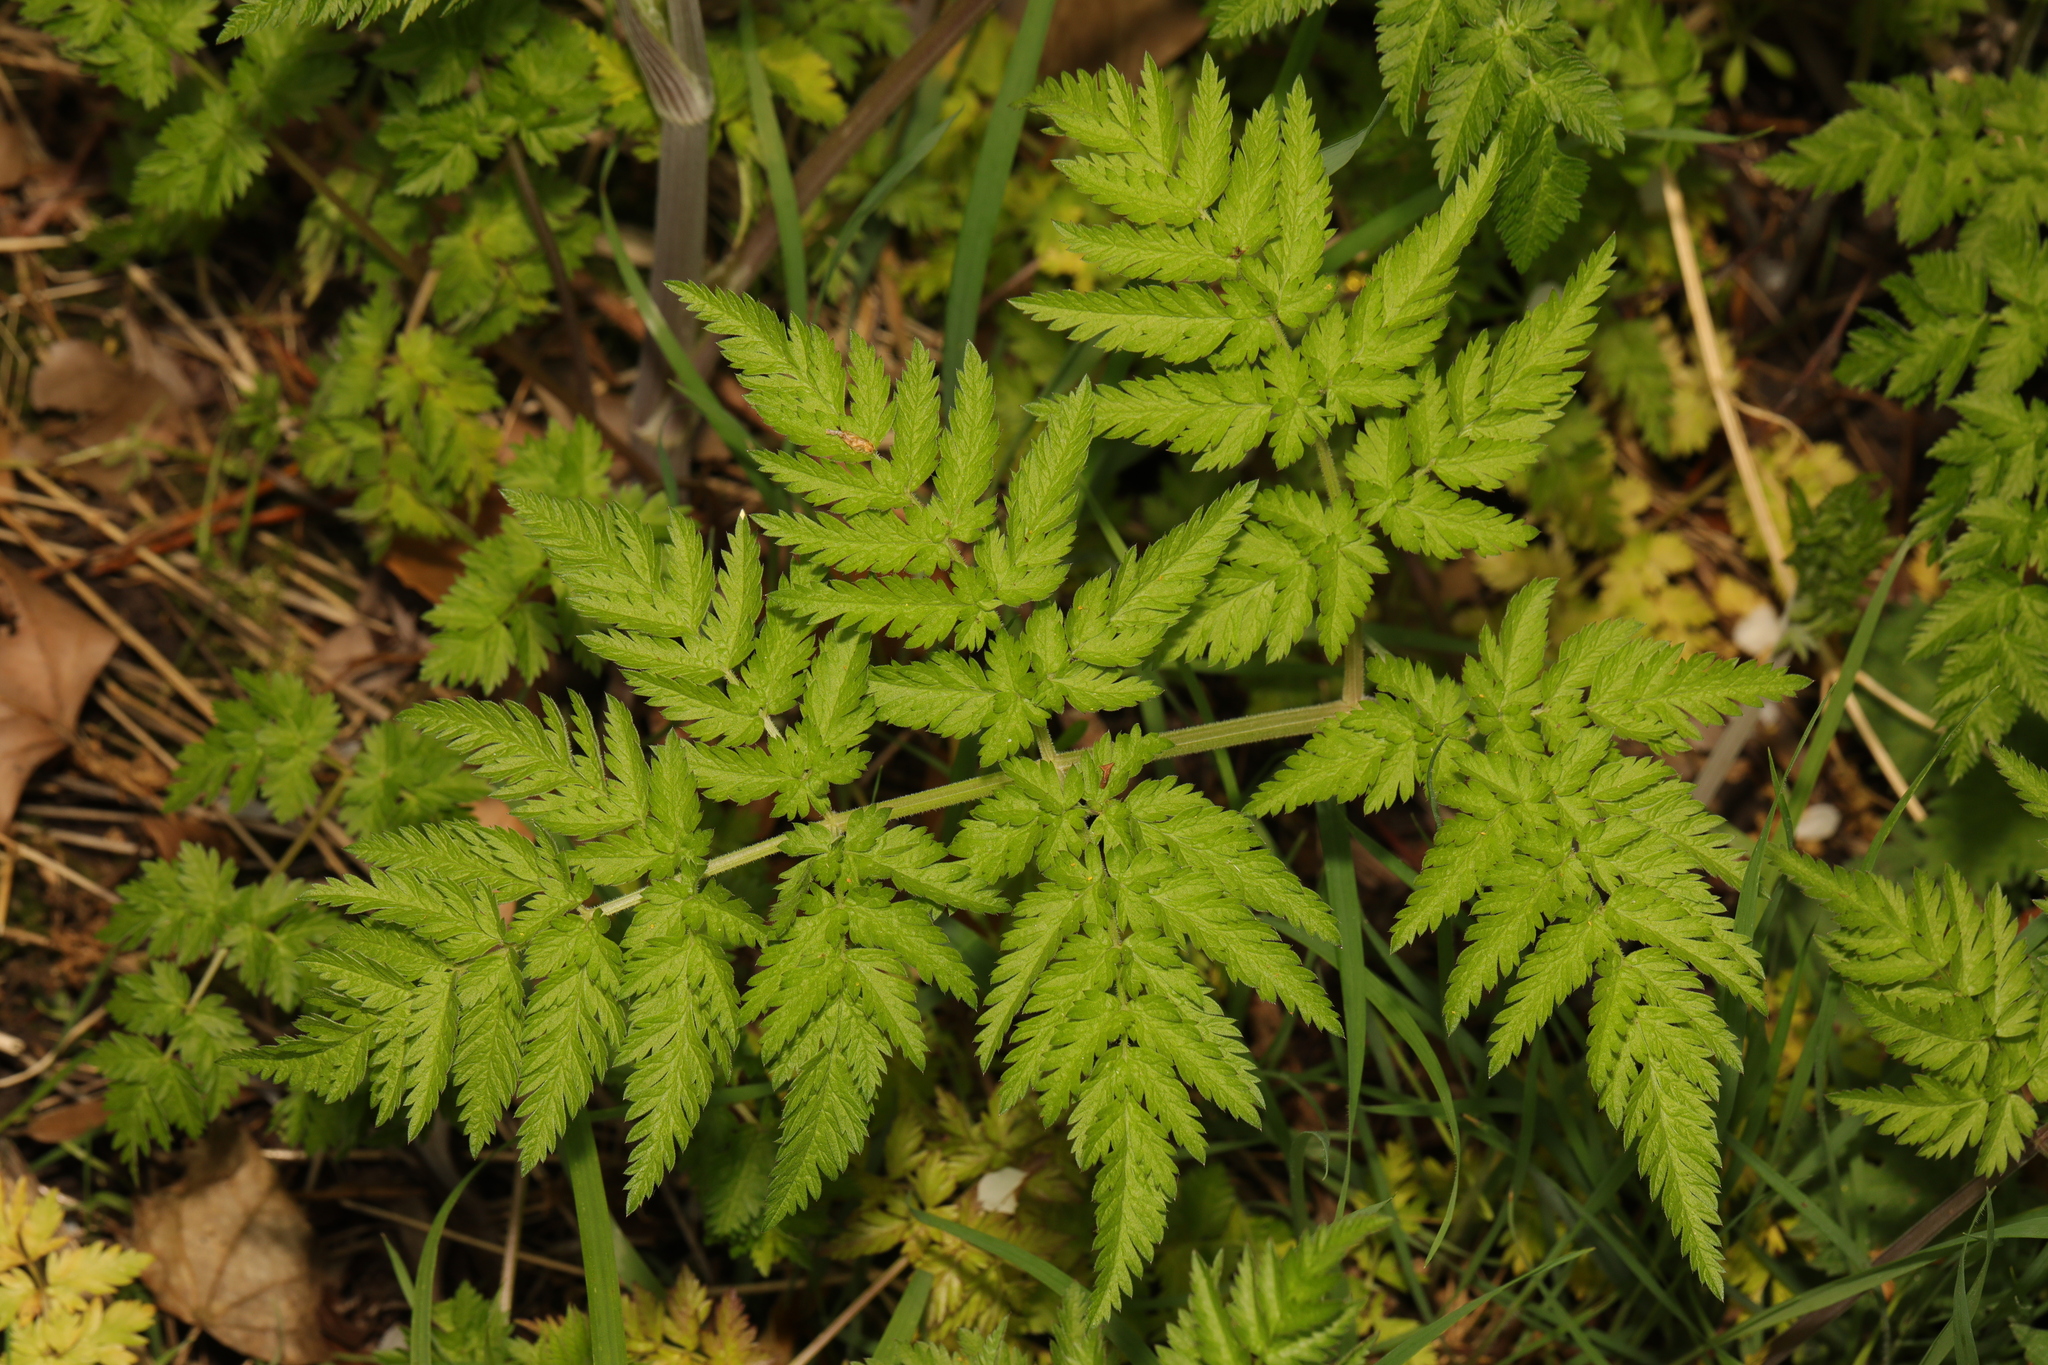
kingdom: Plantae
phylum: Tracheophyta
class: Magnoliopsida
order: Apiales
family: Apiaceae
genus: Anthriscus
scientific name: Anthriscus sylvestris
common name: Cow parsley
